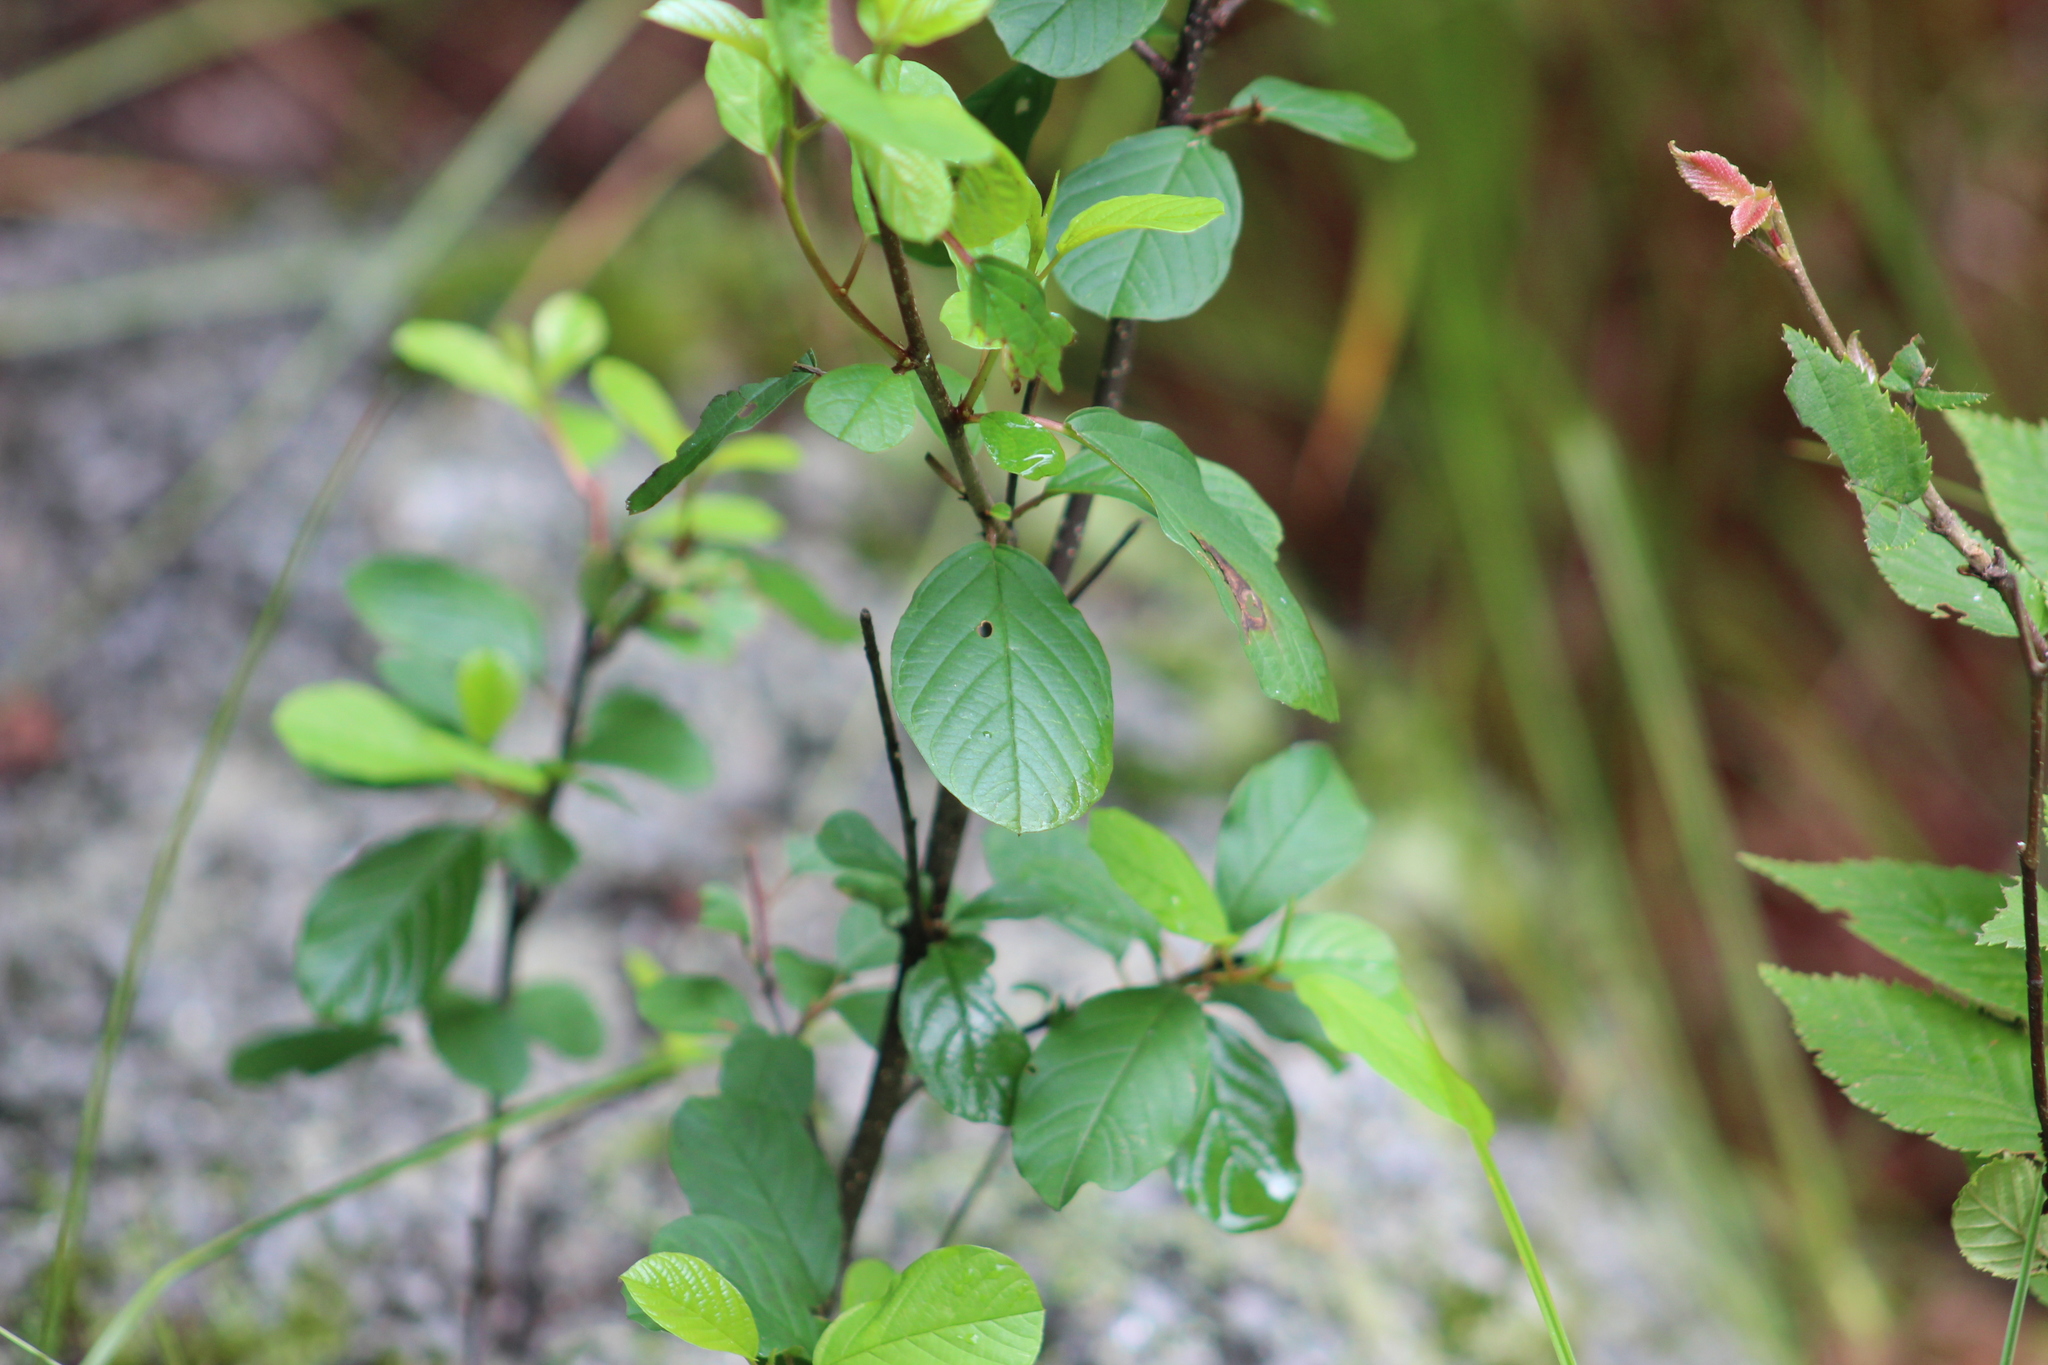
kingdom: Plantae
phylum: Tracheophyta
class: Magnoliopsida
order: Rosales
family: Rhamnaceae
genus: Frangula
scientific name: Frangula alnus
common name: Alder buckthorn
